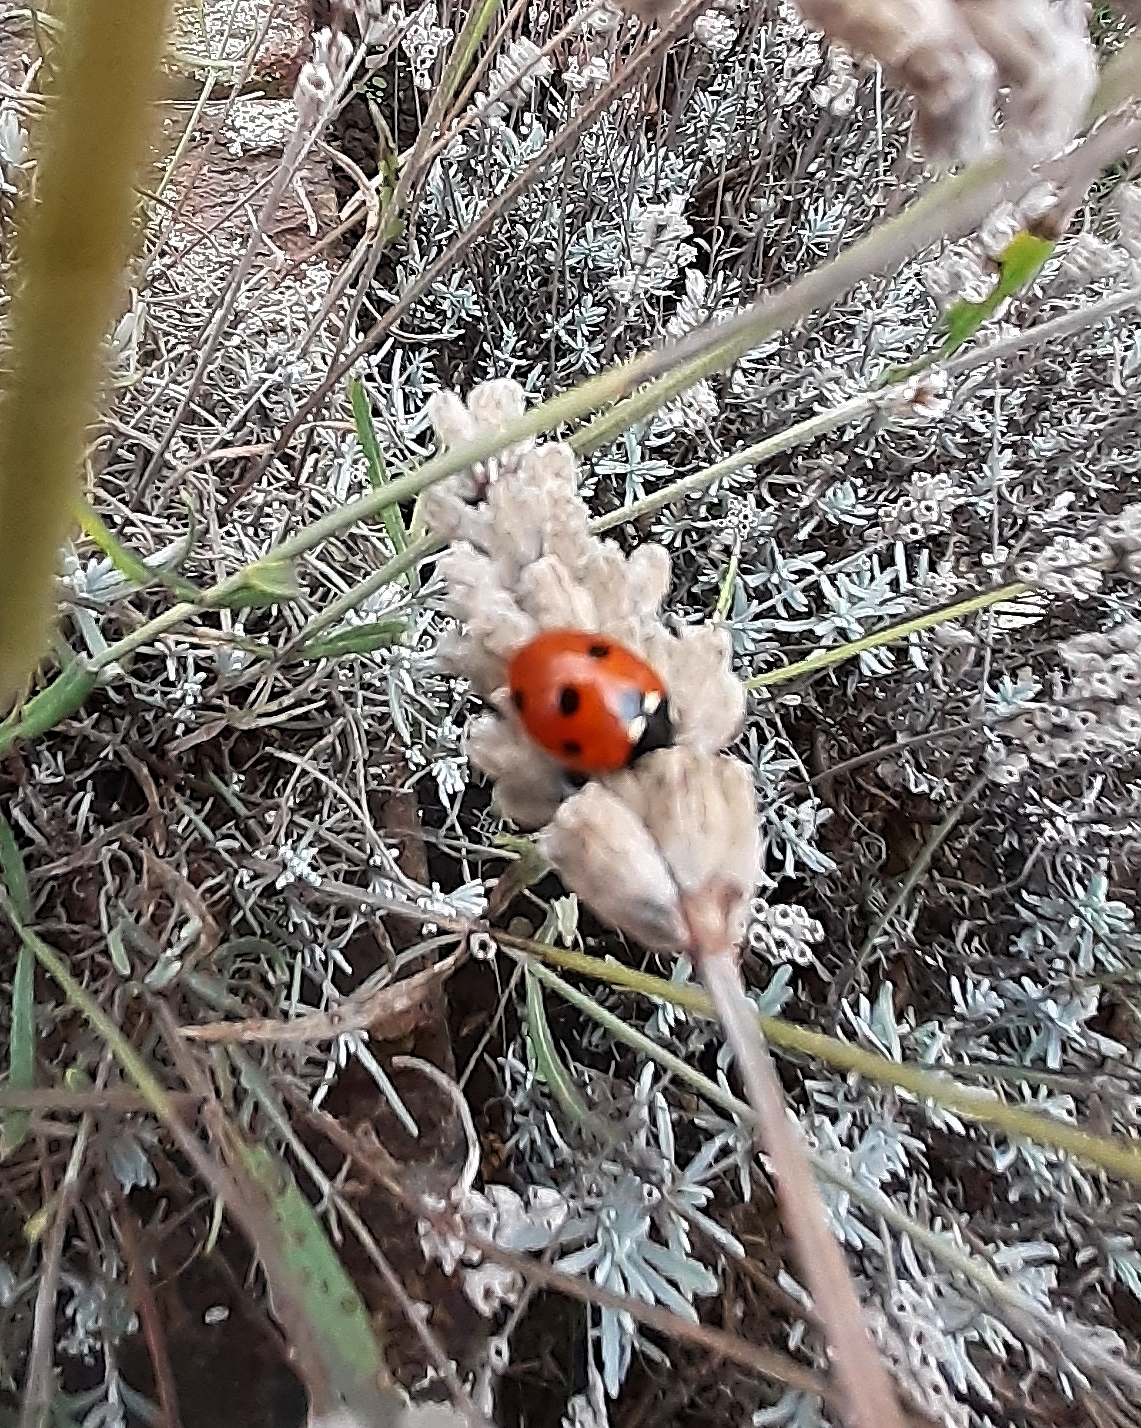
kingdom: Animalia
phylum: Arthropoda
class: Insecta
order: Coleoptera
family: Coccinellidae
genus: Coccinella
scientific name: Coccinella septempunctata
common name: Sevenspotted lady beetle
